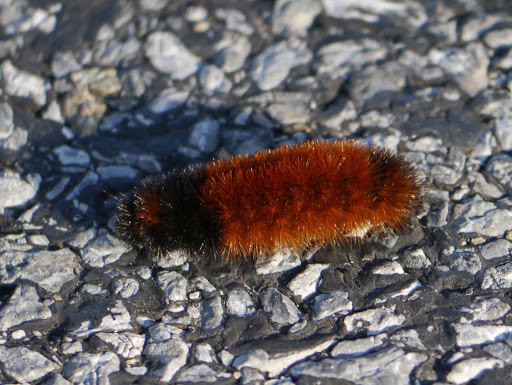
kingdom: Animalia
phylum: Arthropoda
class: Insecta
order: Lepidoptera
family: Erebidae
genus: Pyrrharctia
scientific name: Pyrrharctia isabella
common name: Isabella tiger moth
